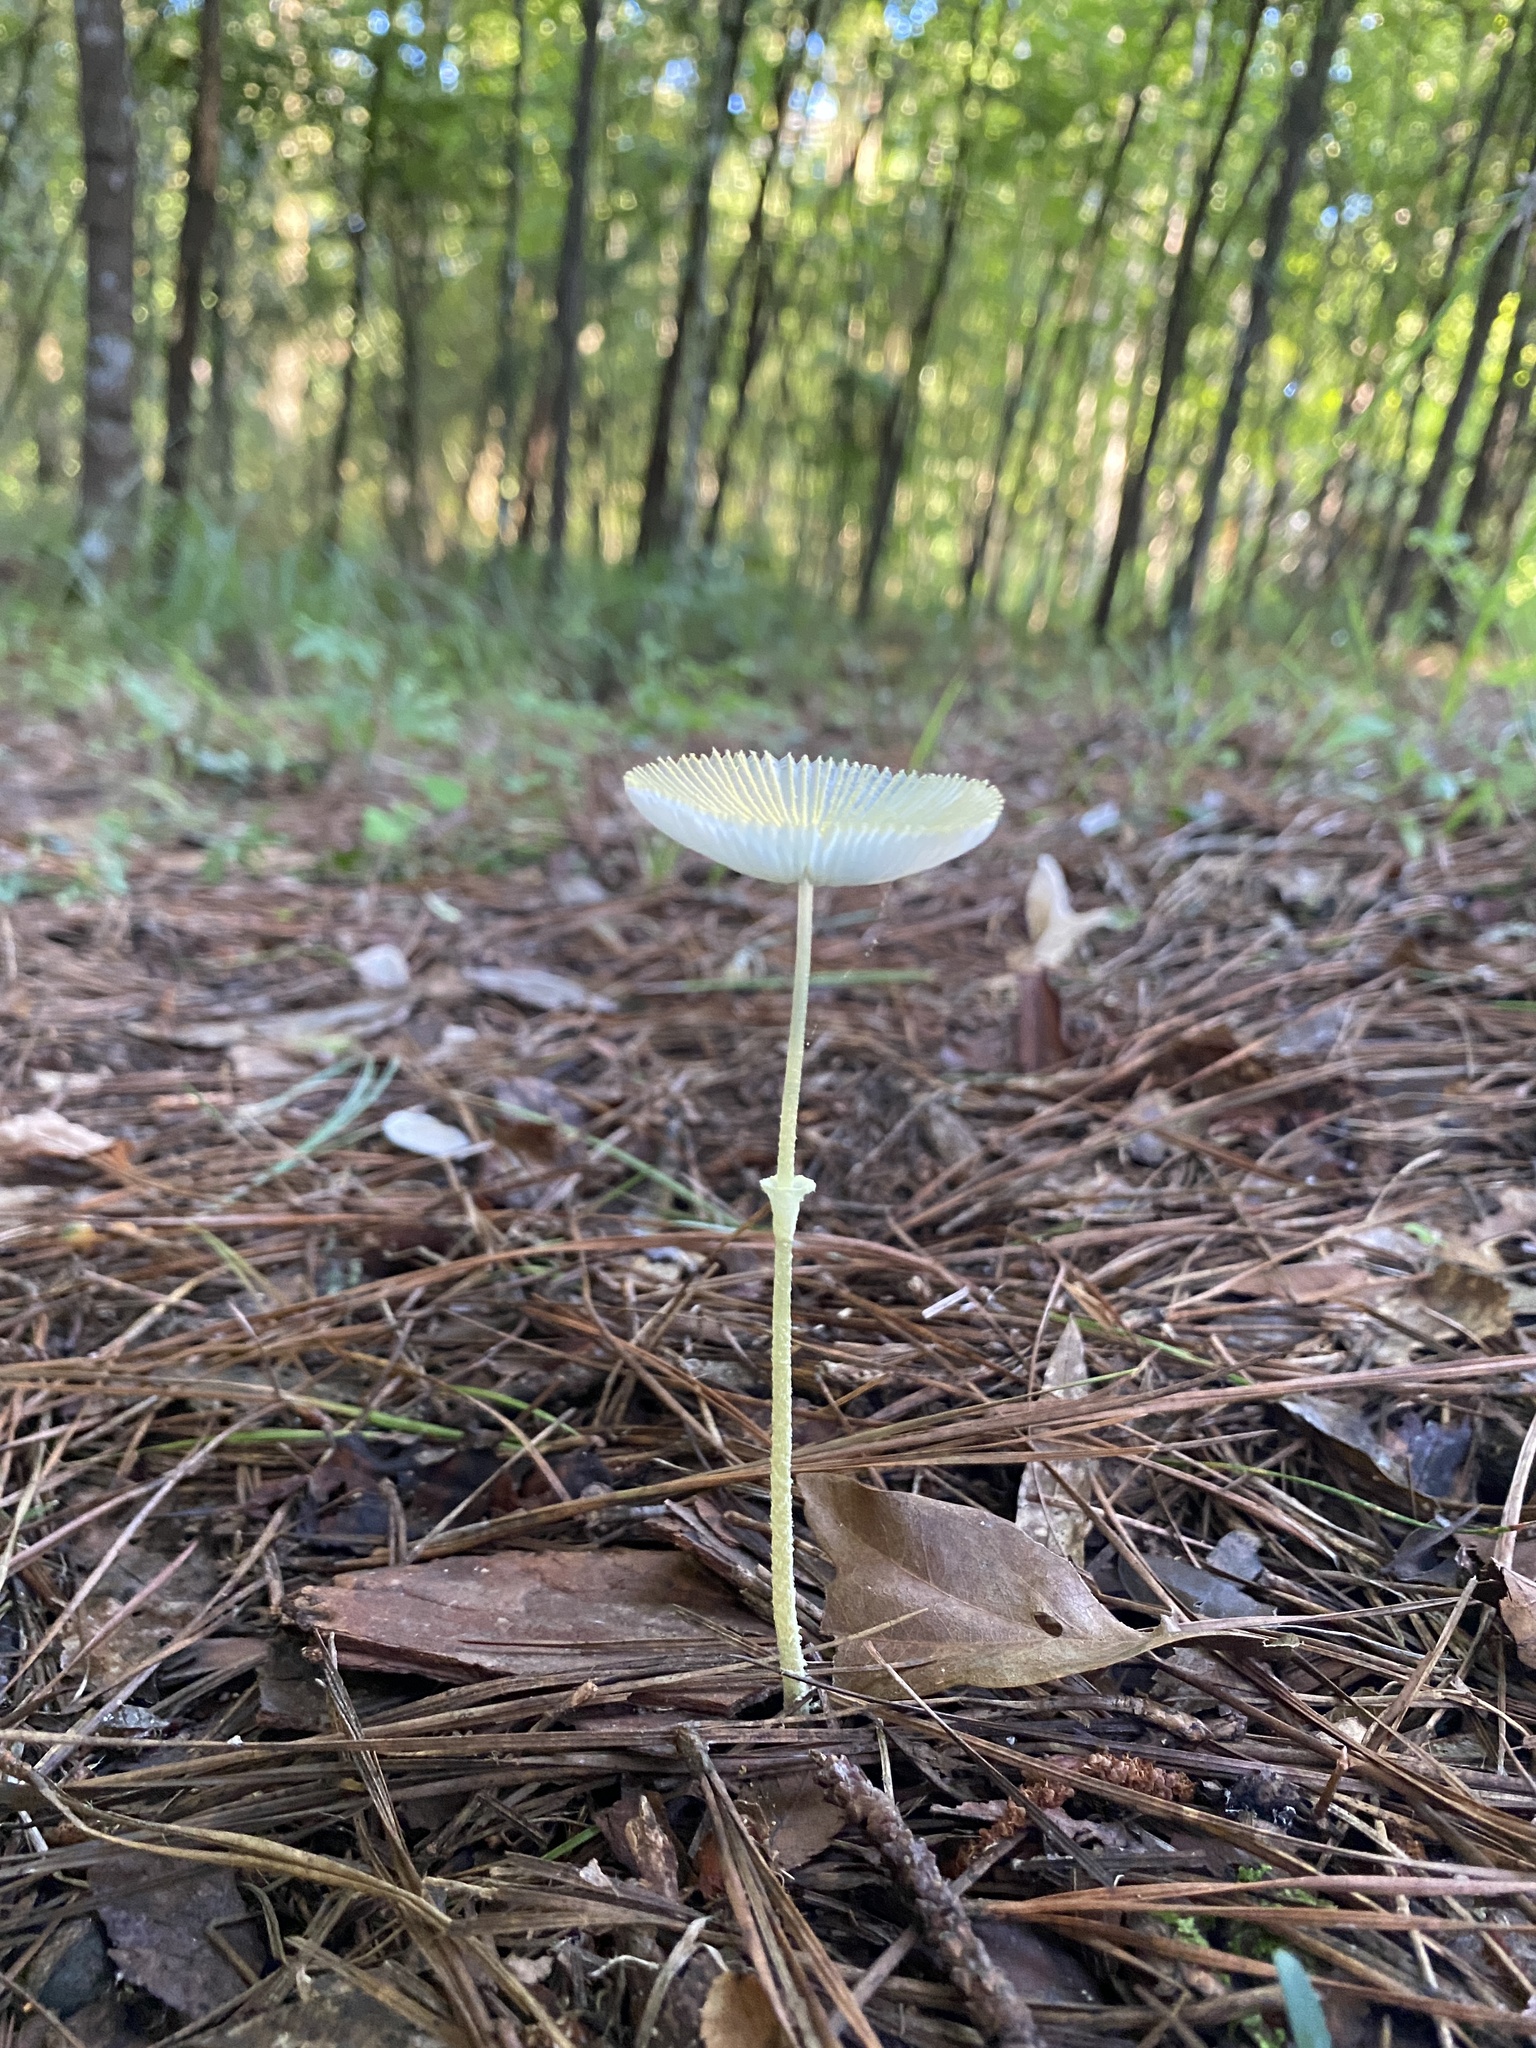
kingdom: Fungi
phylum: Basidiomycota
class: Agaricomycetes
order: Agaricales
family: Agaricaceae
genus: Leucocoprinus
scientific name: Leucocoprinus fragilissimus
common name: Fragile dapperling
